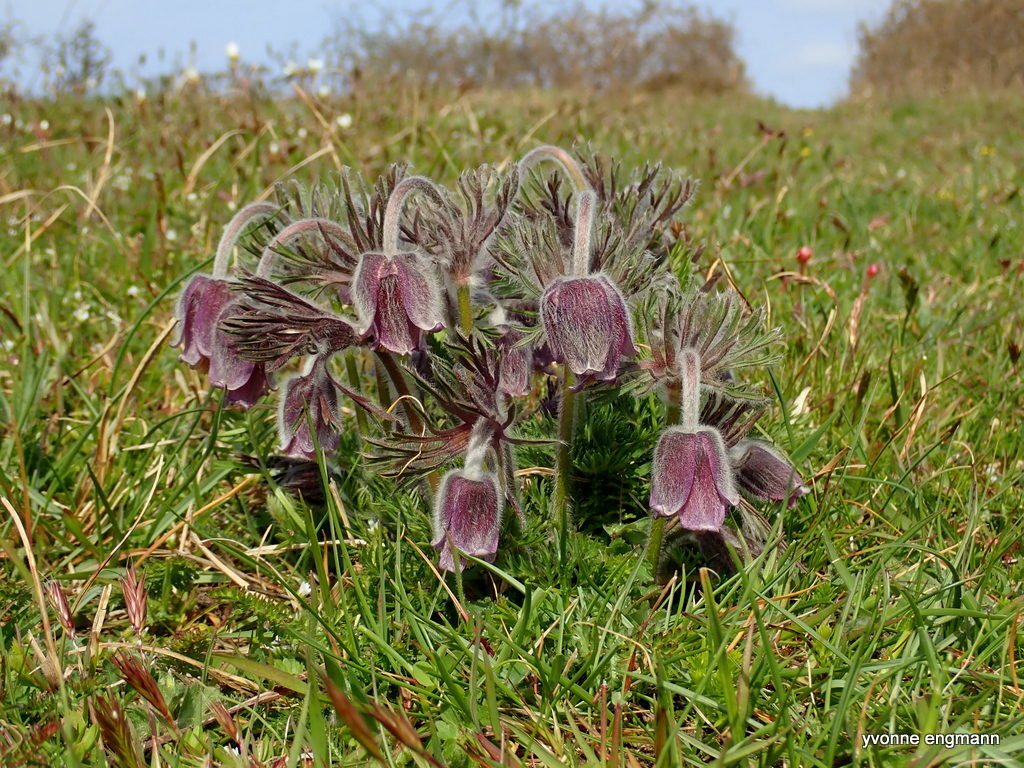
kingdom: Plantae
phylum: Tracheophyta
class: Magnoliopsida
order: Ranunculales
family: Ranunculaceae
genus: Pulsatilla
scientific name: Pulsatilla pratensis
